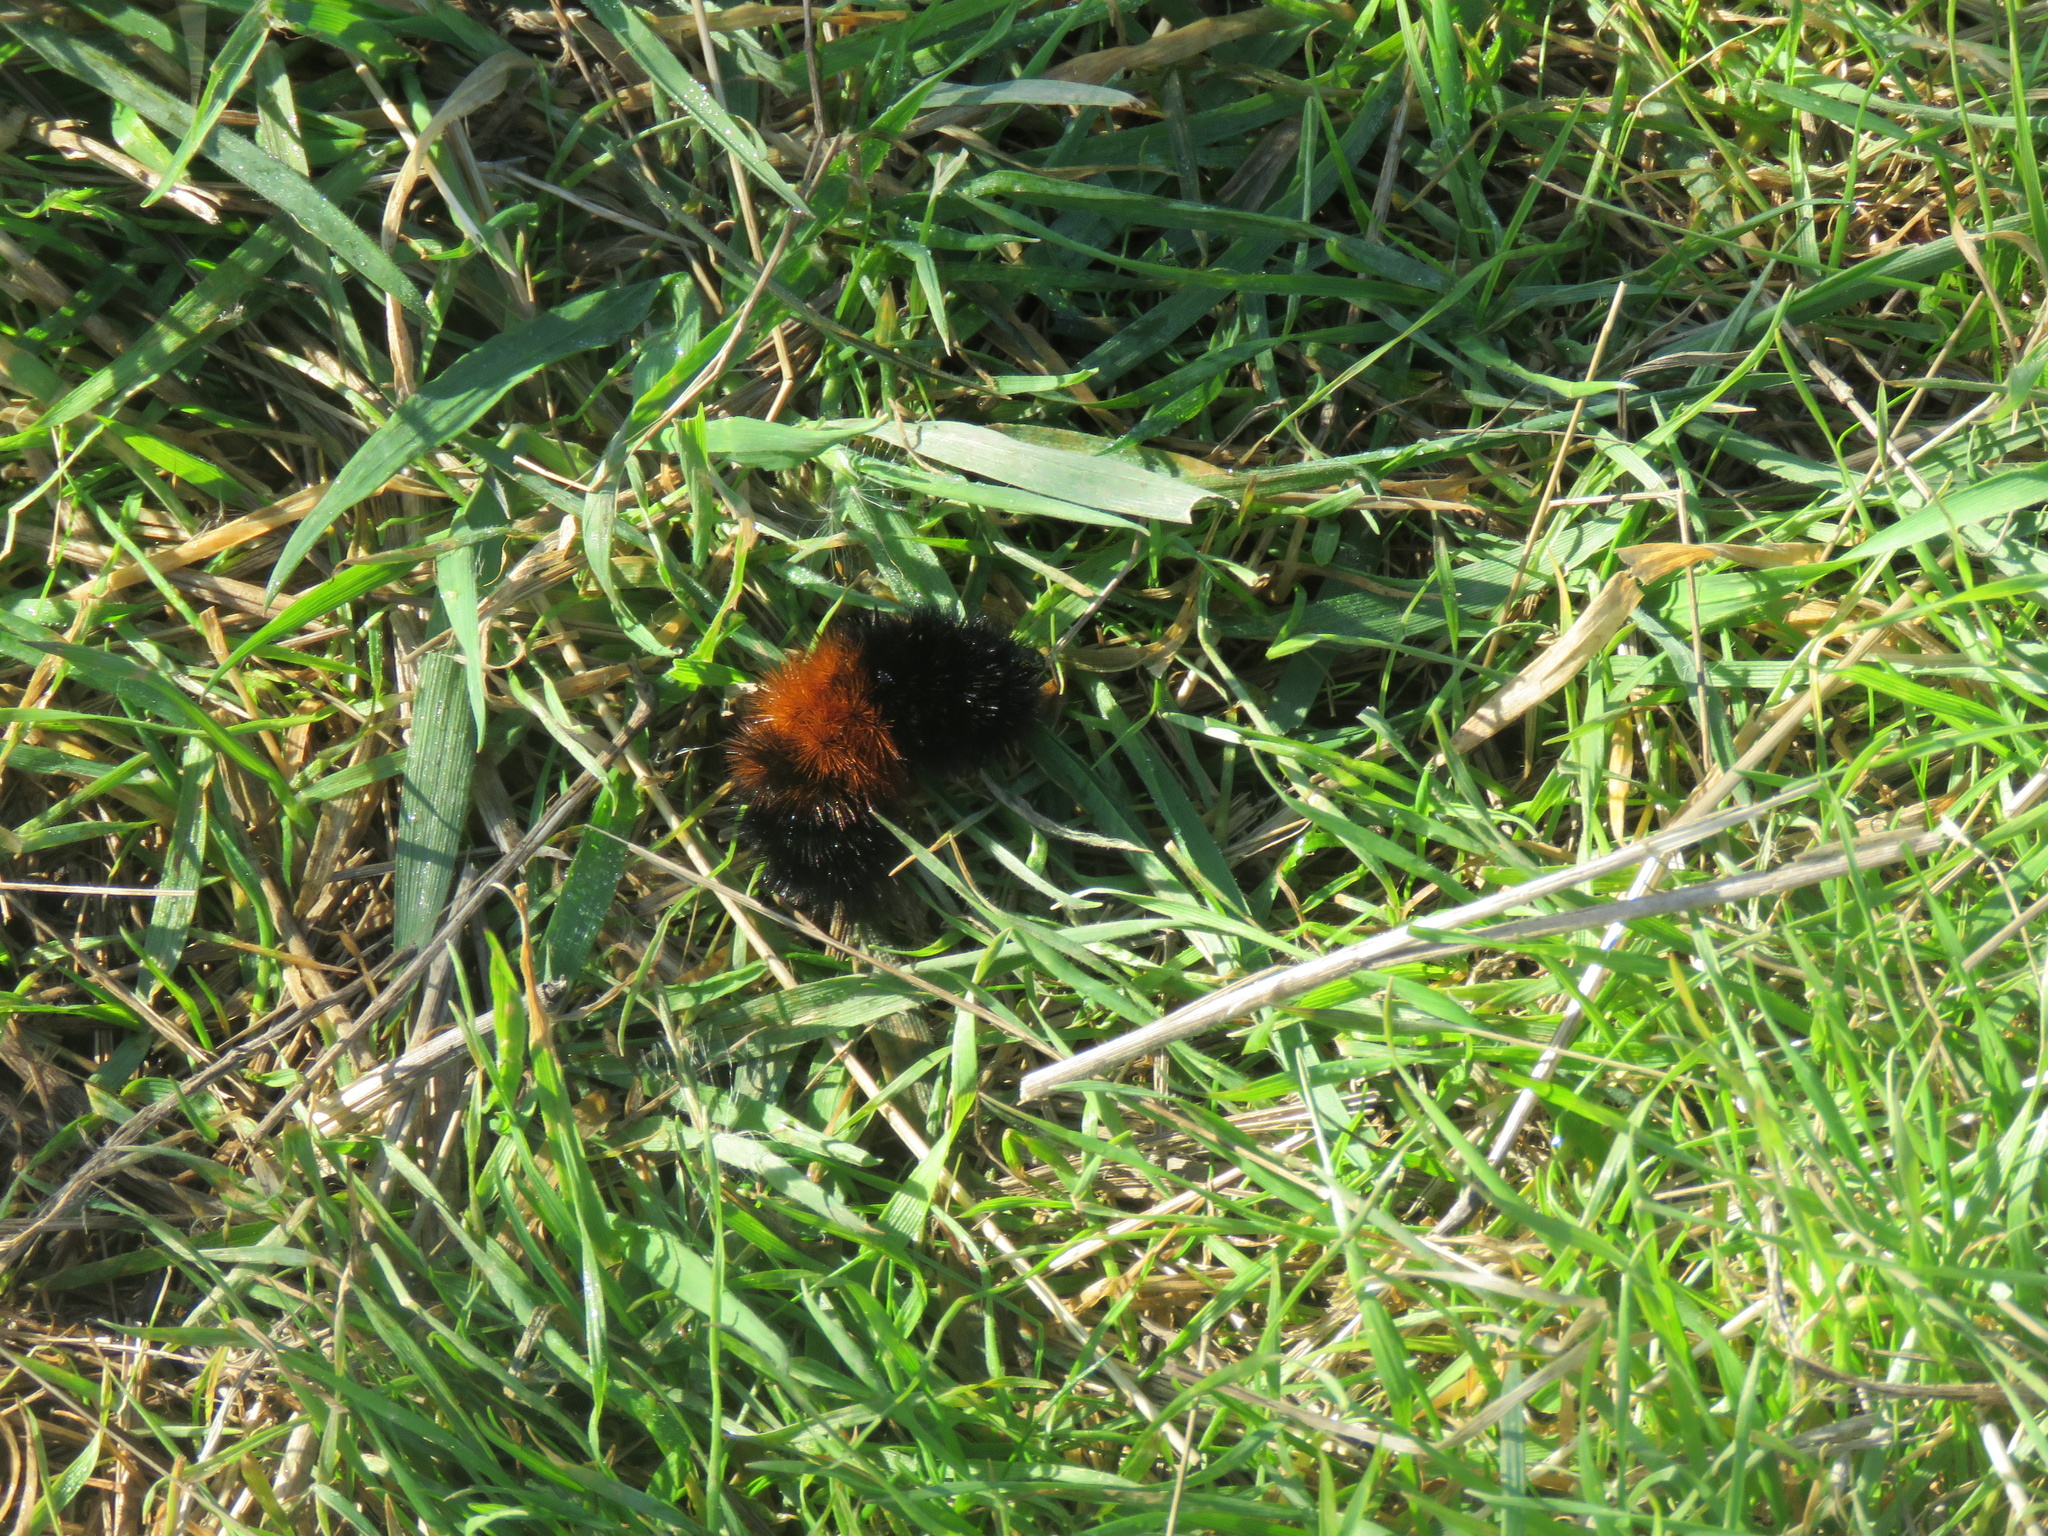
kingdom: Animalia
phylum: Arthropoda
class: Insecta
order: Lepidoptera
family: Erebidae
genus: Pyrrharctia
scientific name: Pyrrharctia isabella
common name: Isabella tiger moth
